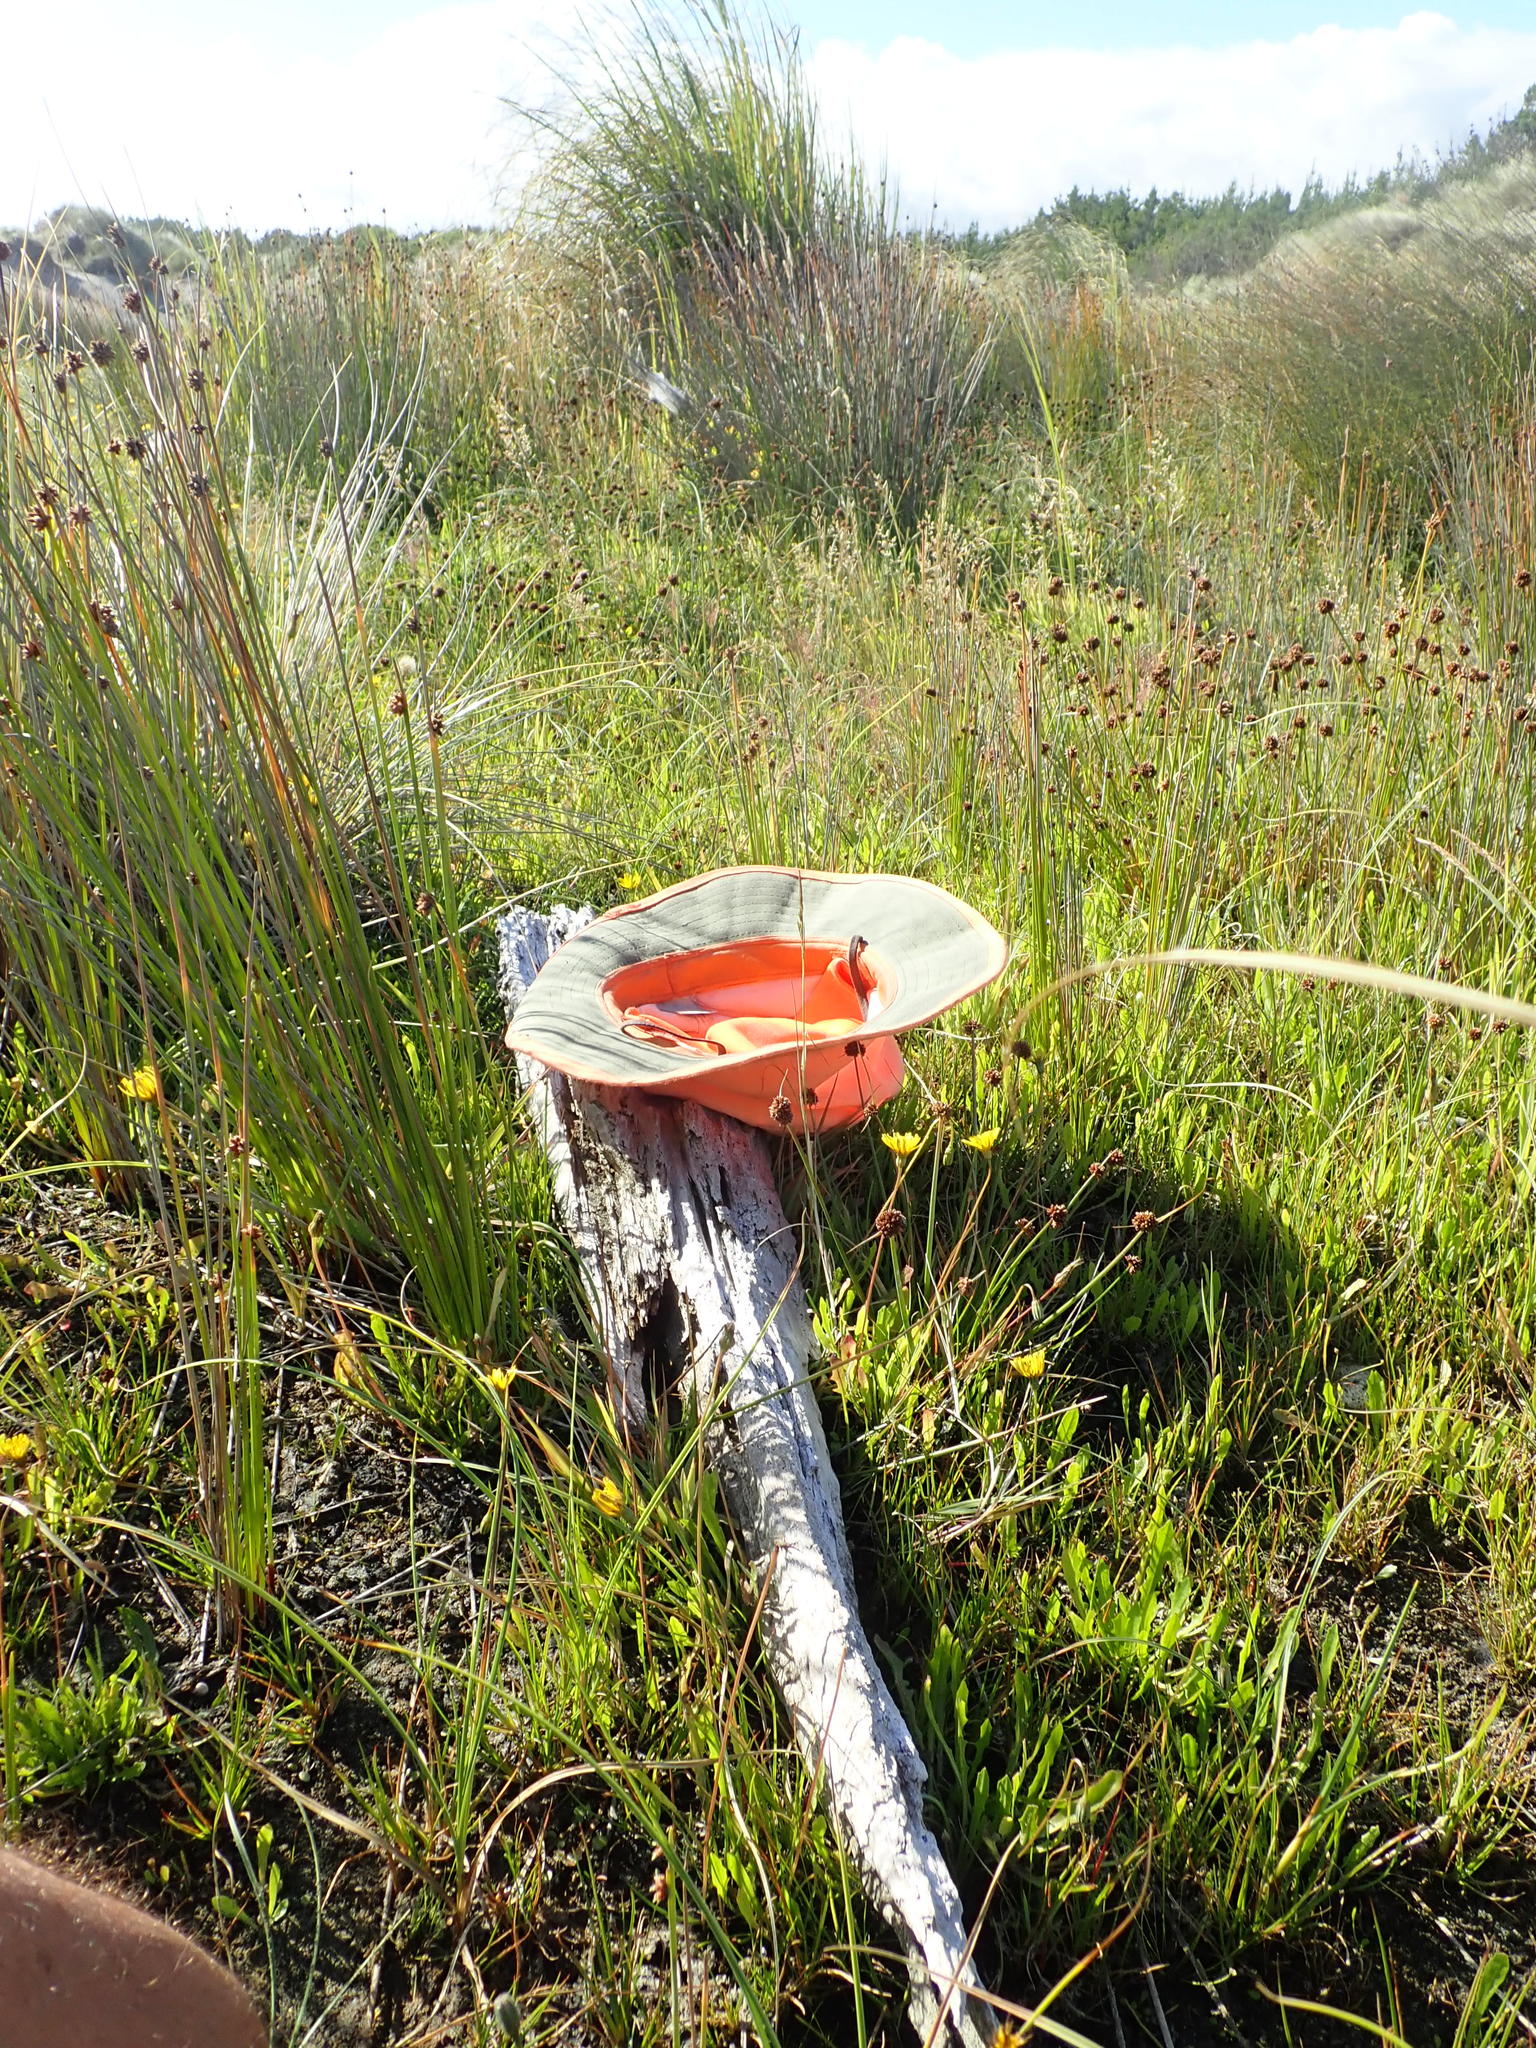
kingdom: Animalia
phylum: Chordata
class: Amphibia
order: Anura
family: Pelodryadidae
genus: Ranoidea
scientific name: Ranoidea raniformis
